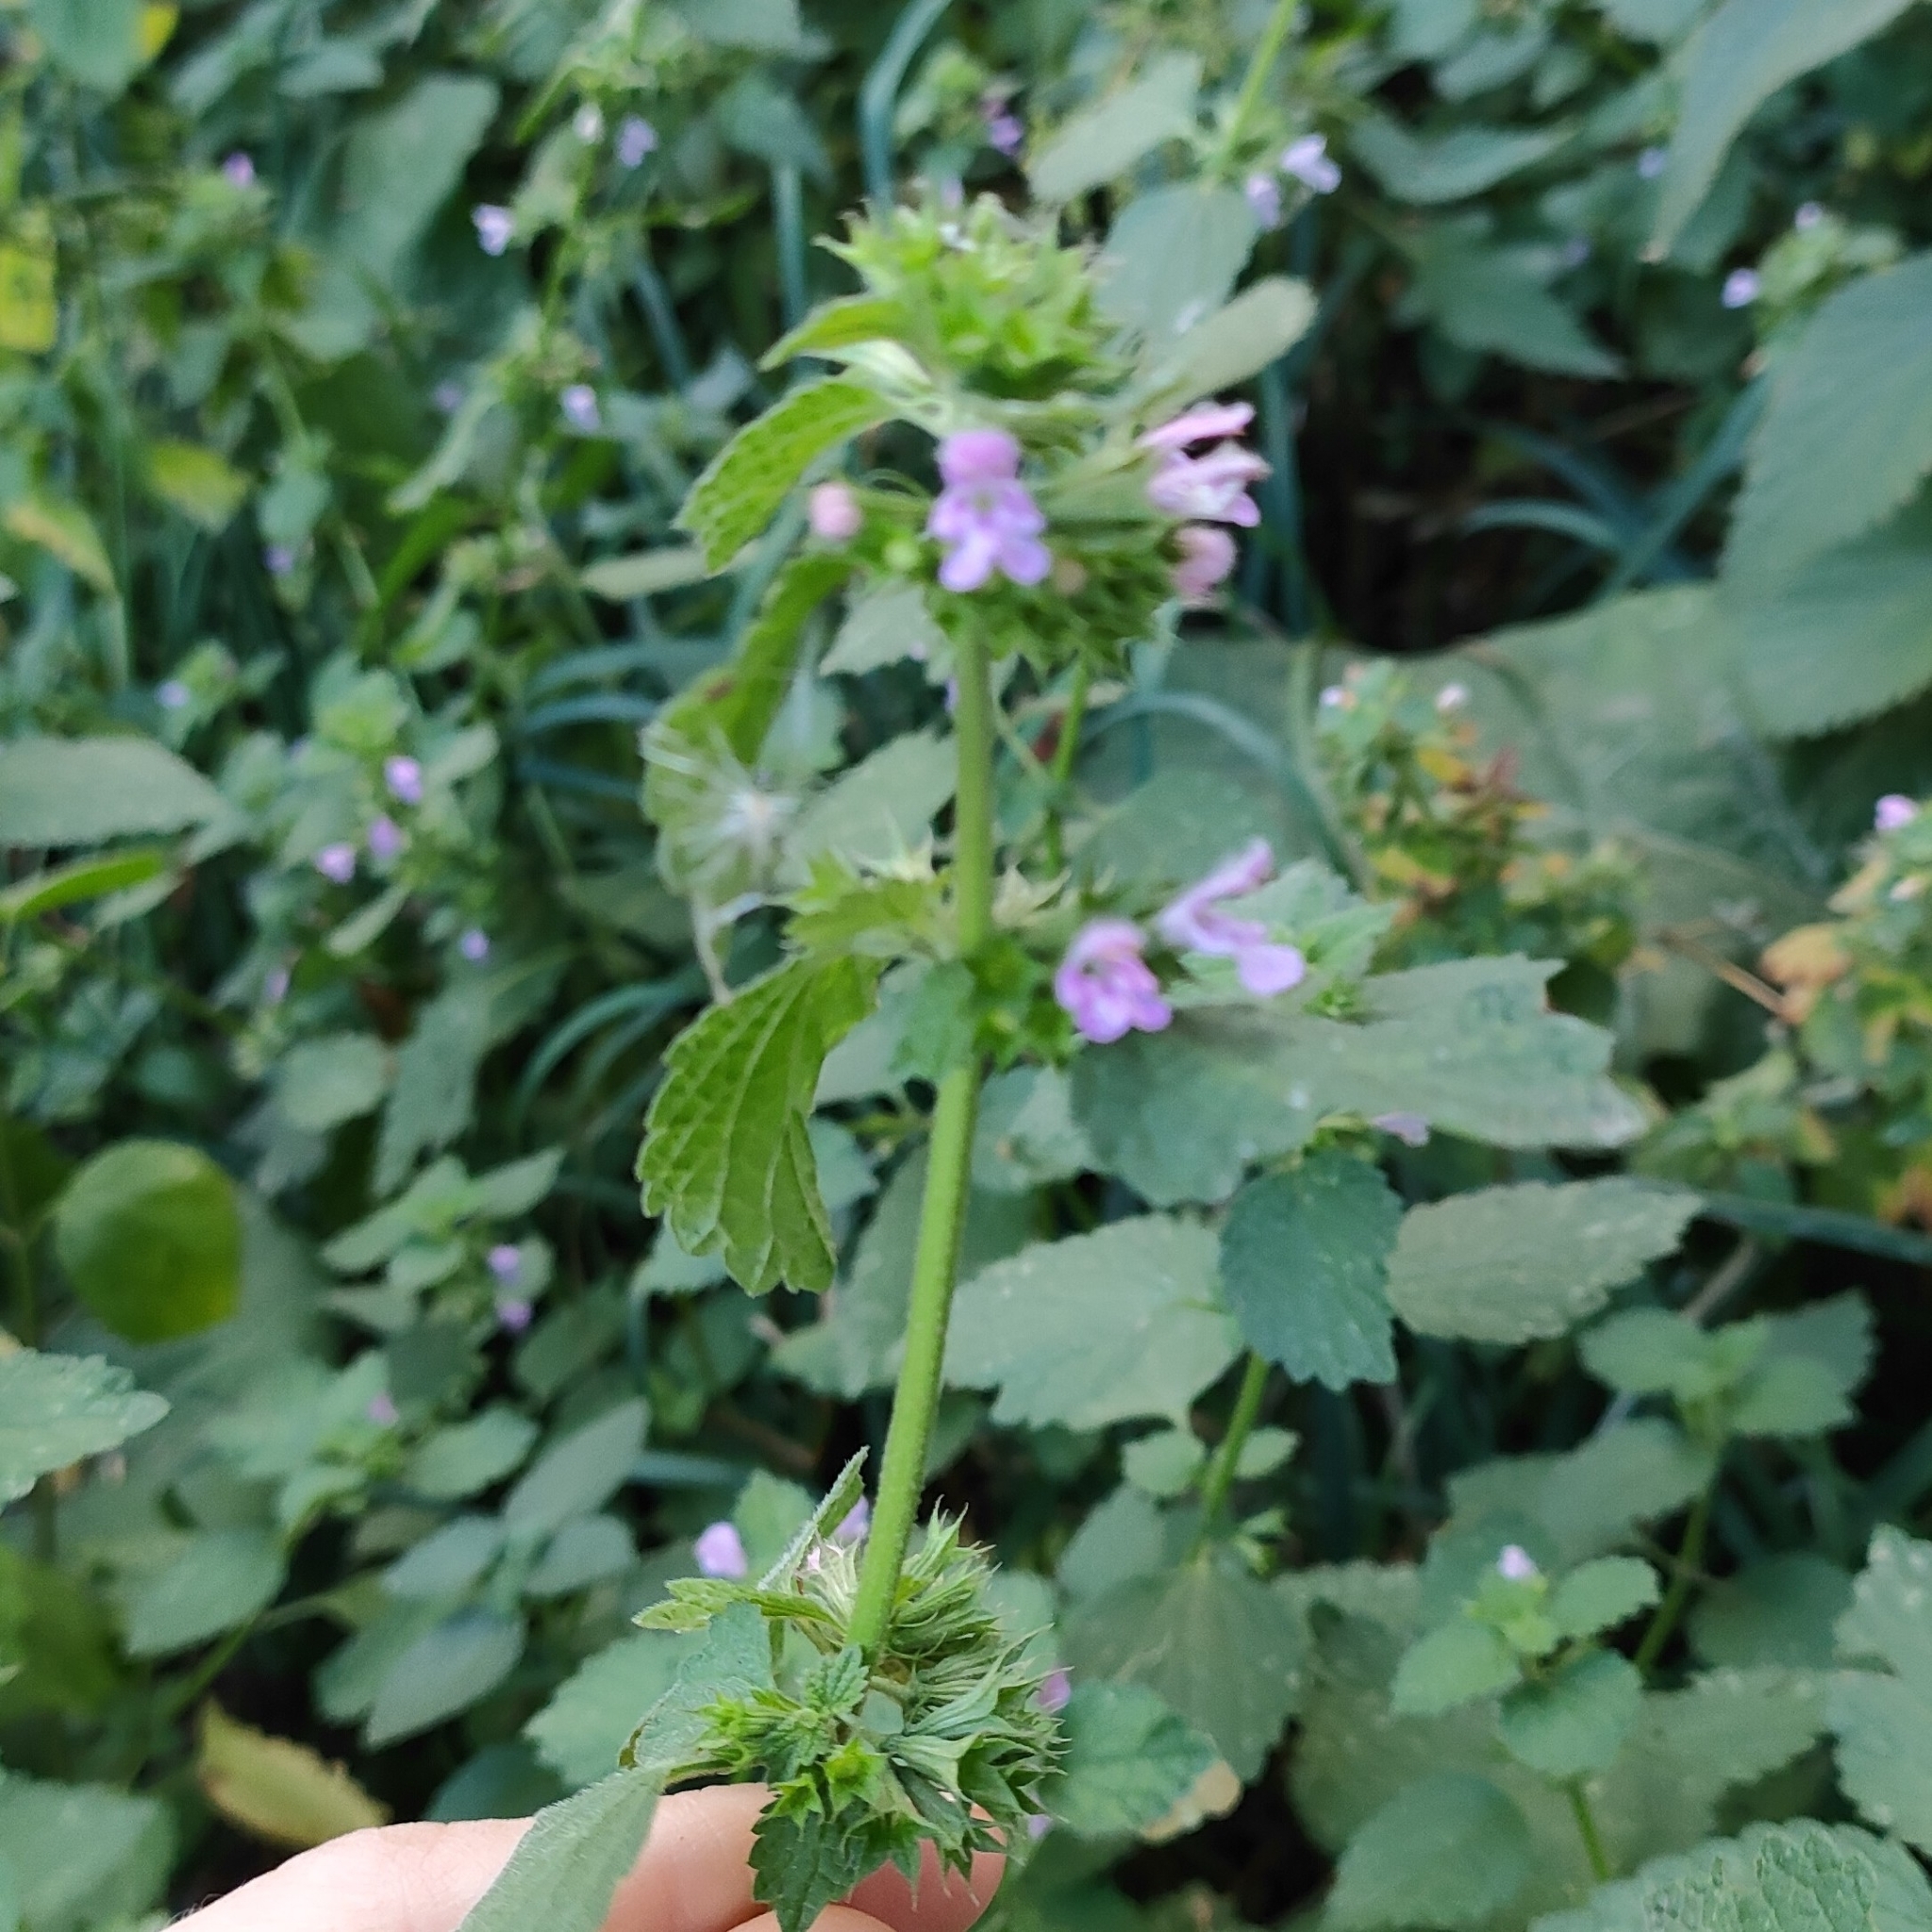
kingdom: Plantae
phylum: Tracheophyta
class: Magnoliopsida
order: Lamiales
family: Lamiaceae
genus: Ballota
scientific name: Ballota nigra
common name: Black horehound
